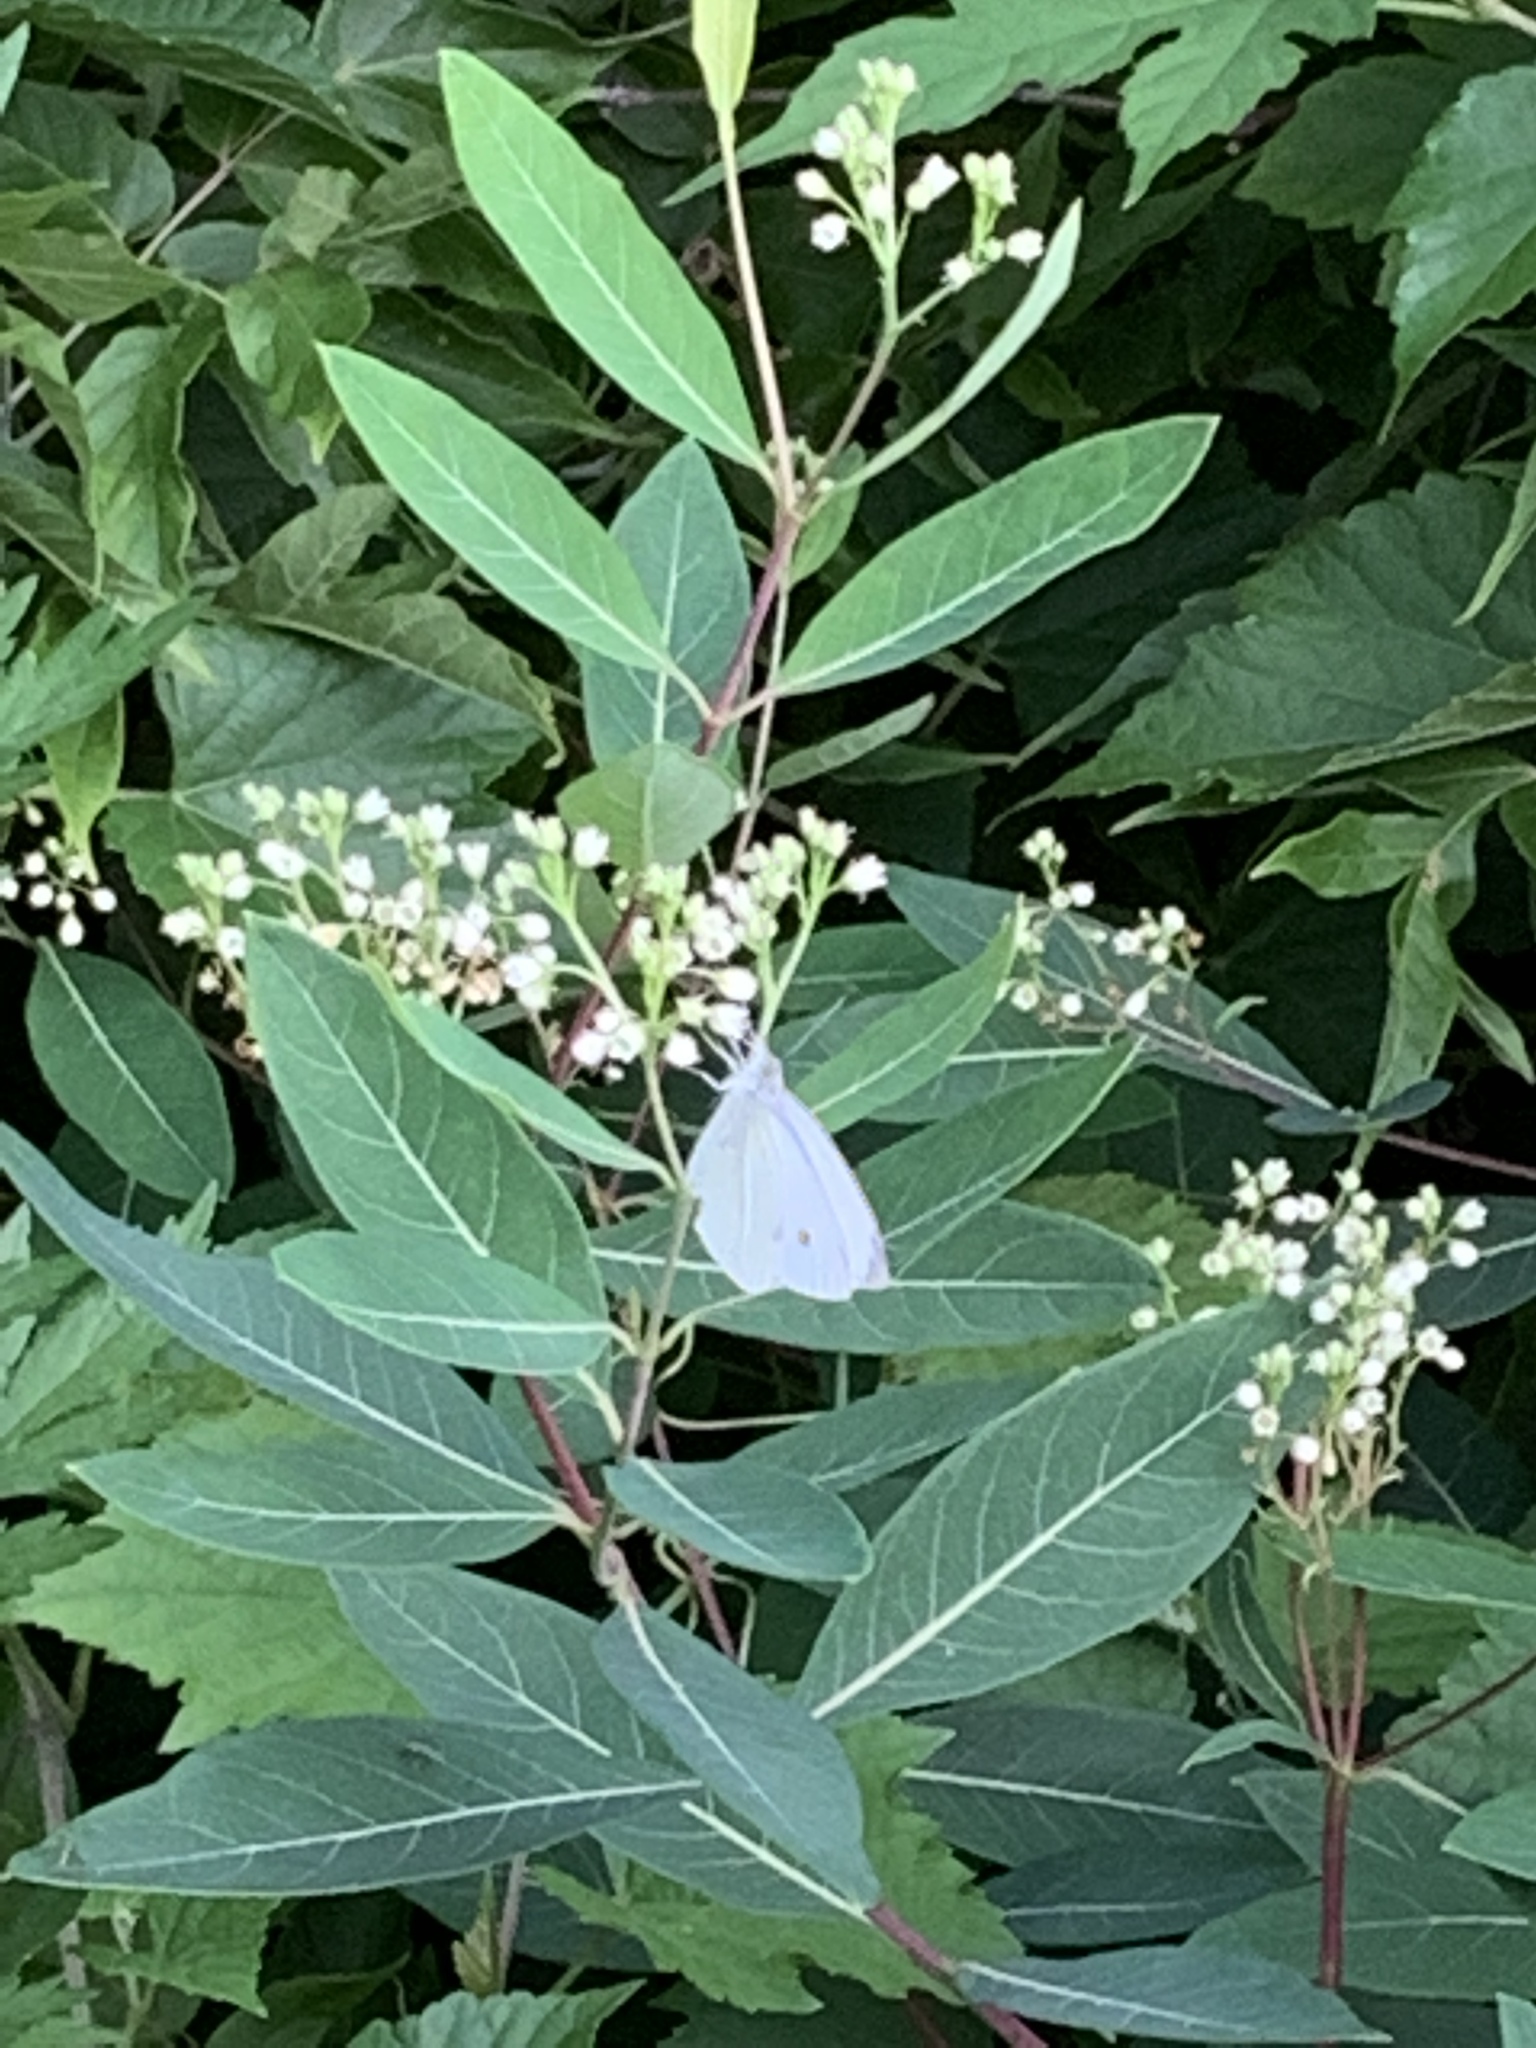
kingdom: Animalia
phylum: Arthropoda
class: Insecta
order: Lepidoptera
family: Pieridae
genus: Pieris
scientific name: Pieris rapae
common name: Small white
